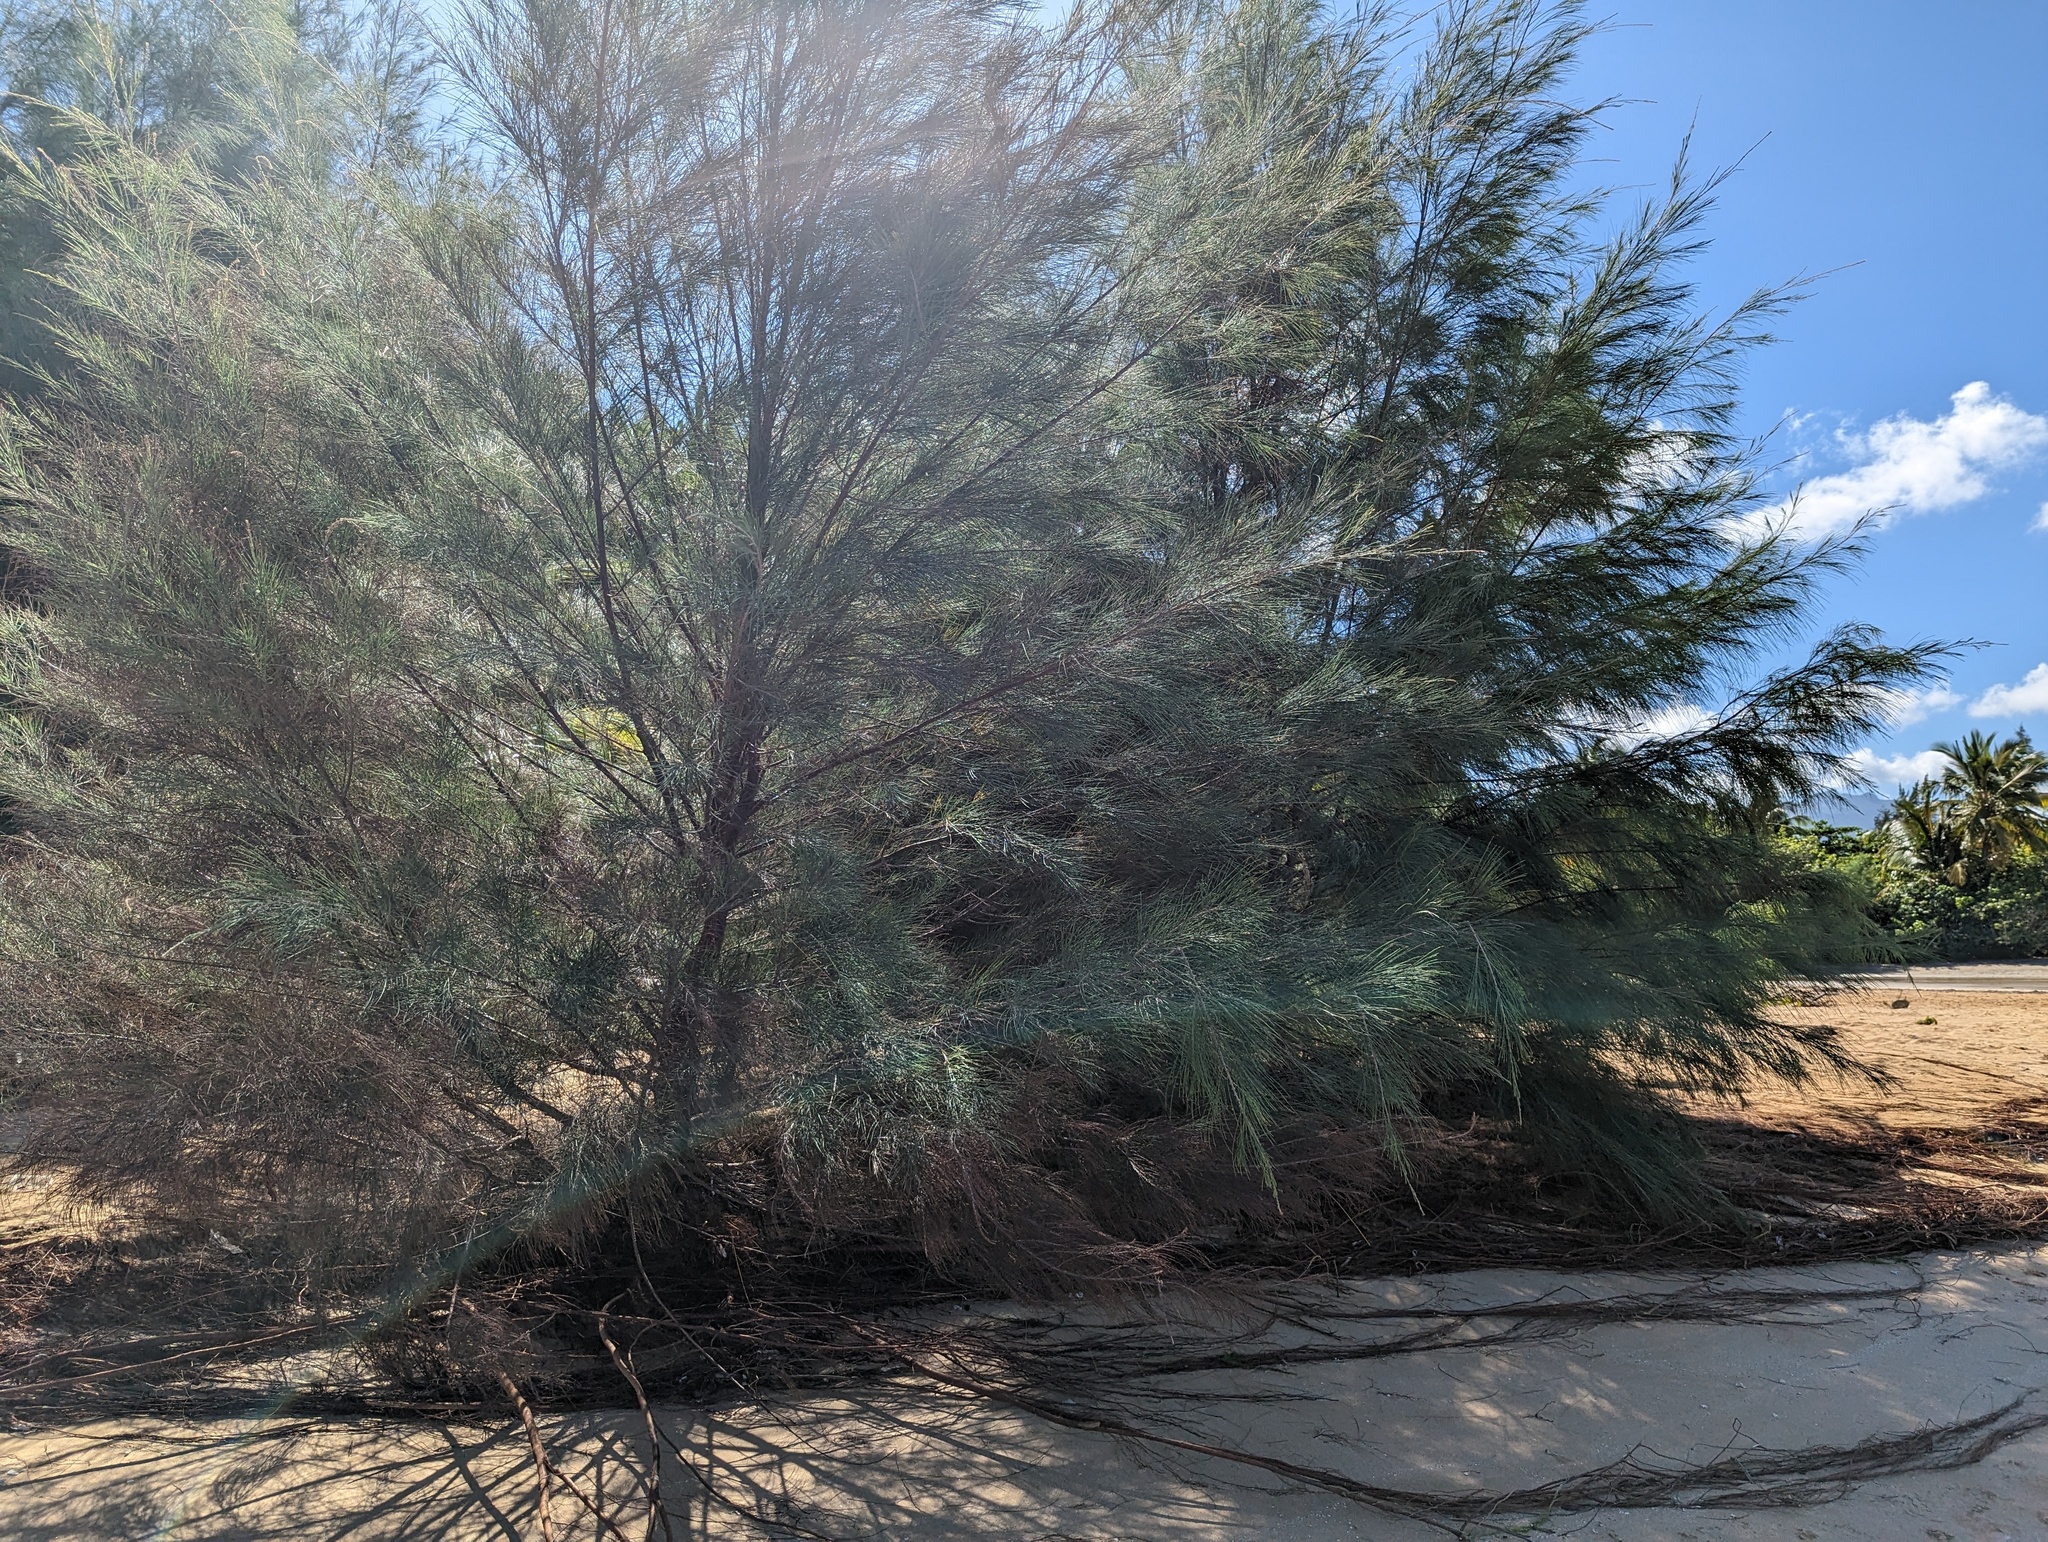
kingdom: Plantae
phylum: Tracheophyta
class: Magnoliopsida
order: Fagales
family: Casuarinaceae
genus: Casuarina
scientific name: Casuarina equisetifolia
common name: Beach sheoak
